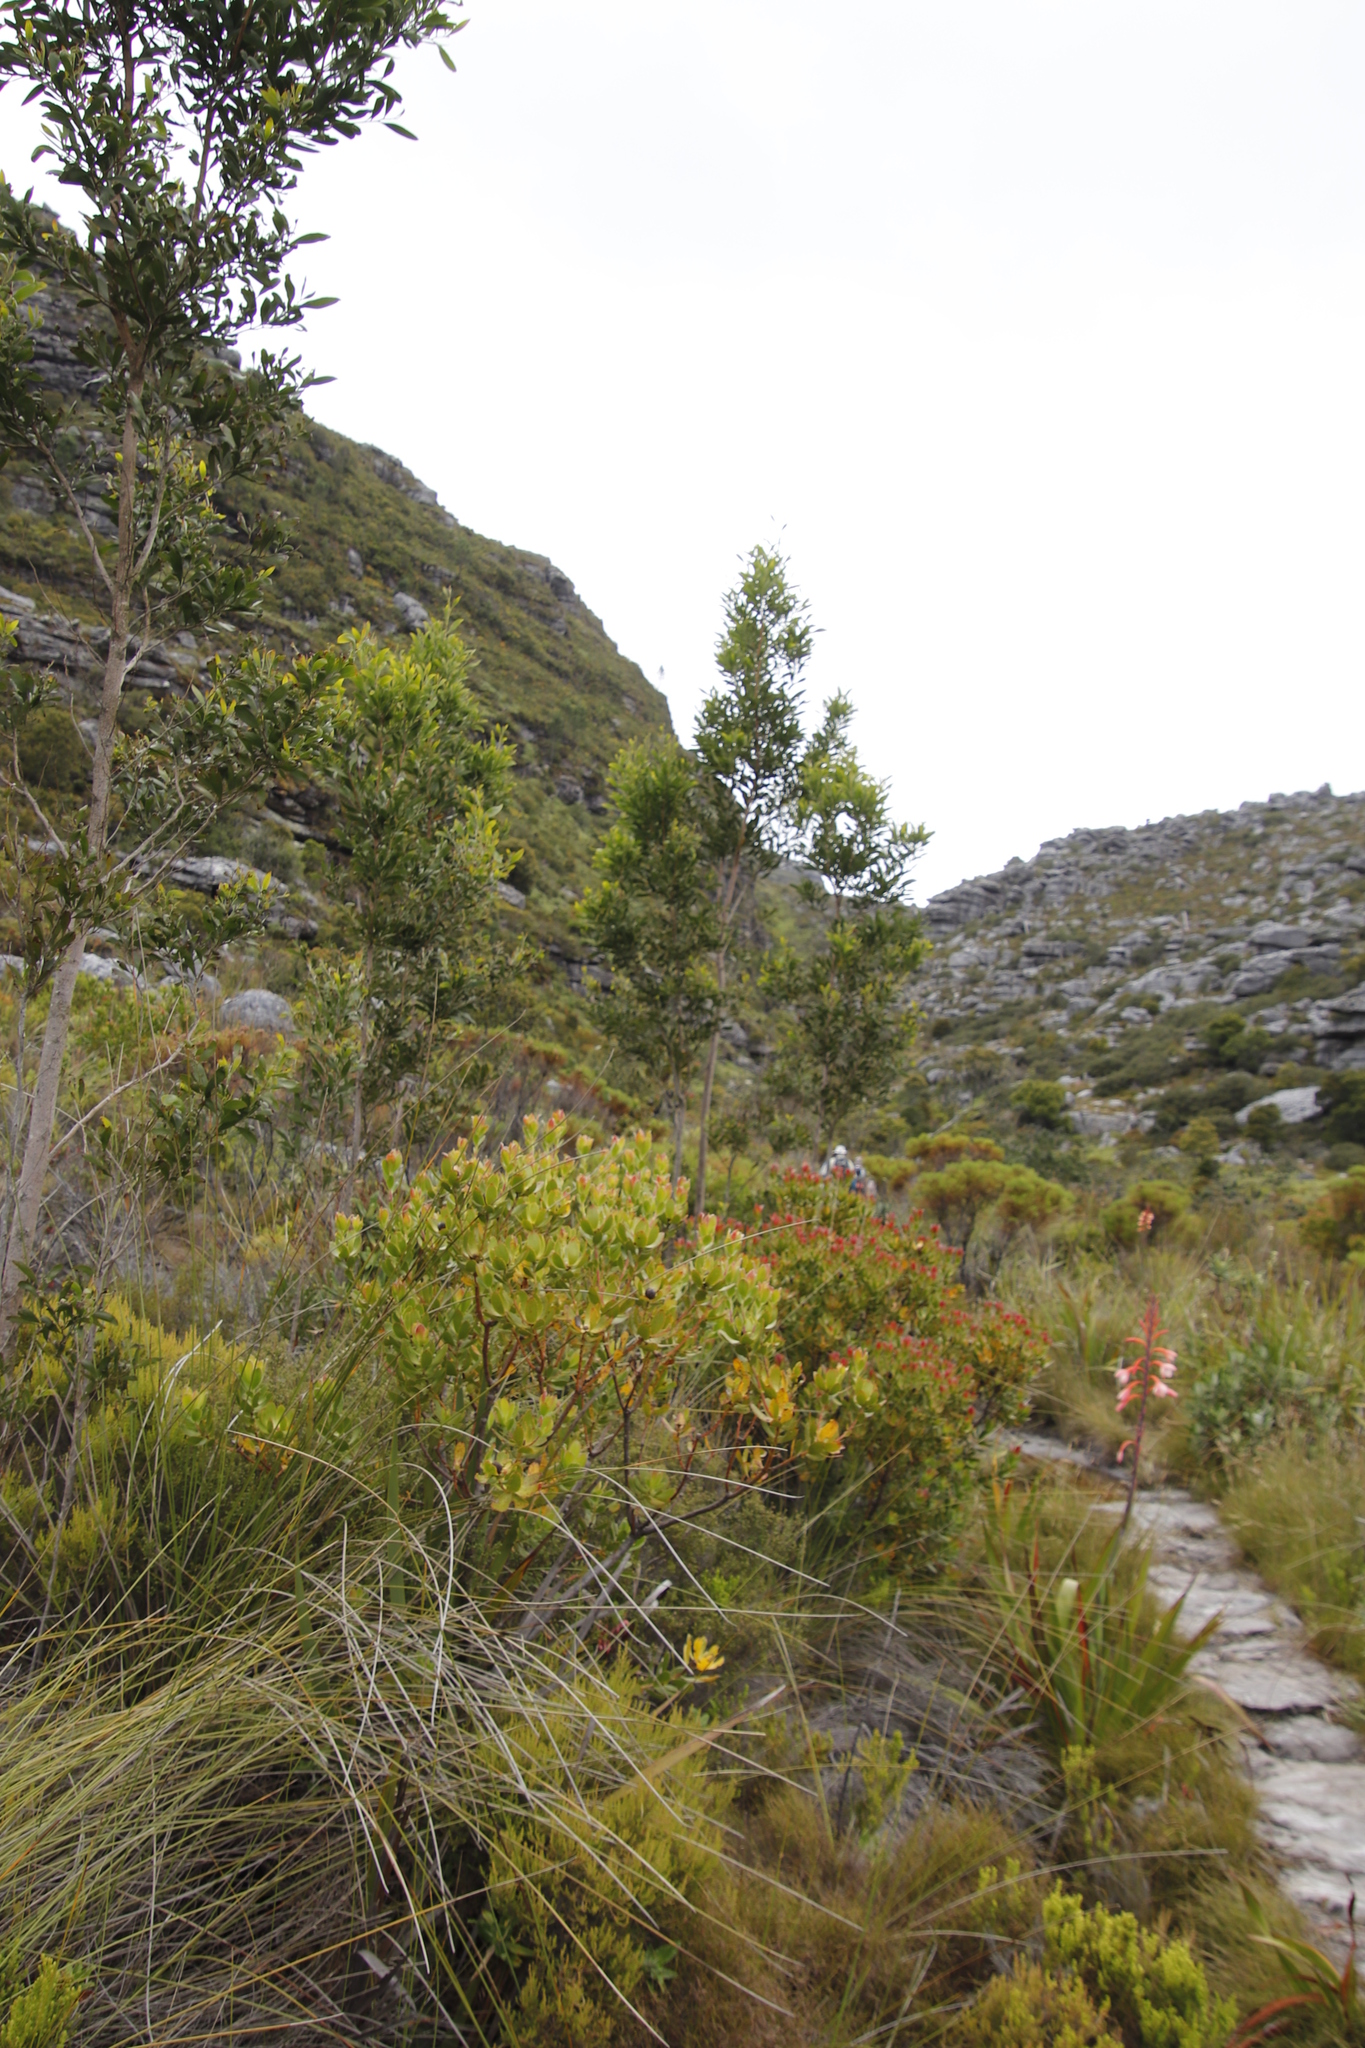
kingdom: Plantae
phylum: Tracheophyta
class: Magnoliopsida
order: Fabales
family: Fabaceae
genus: Acacia
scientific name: Acacia melanoxylon
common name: Blackwood
